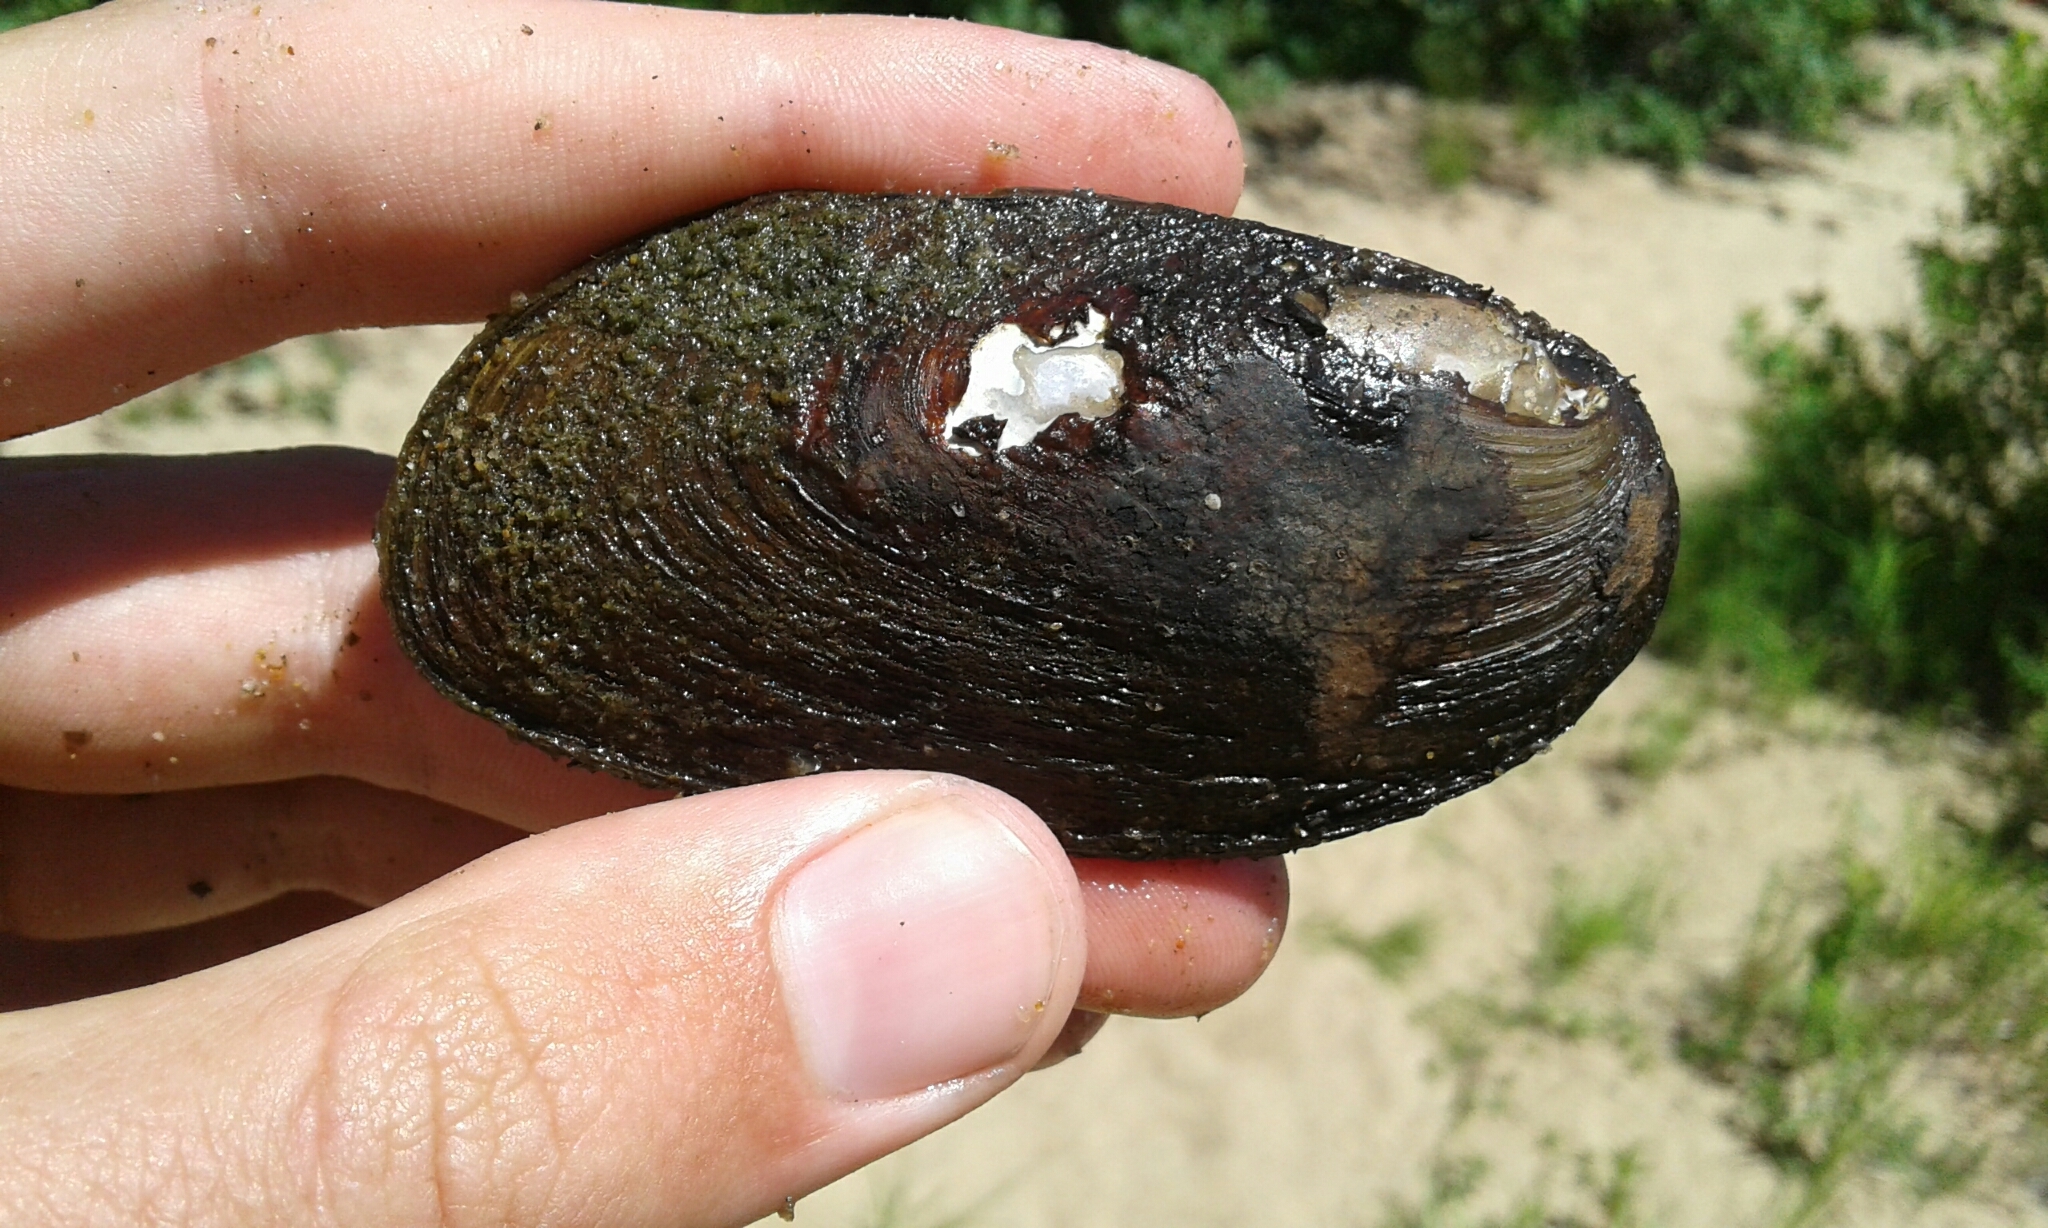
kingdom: Animalia
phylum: Mollusca
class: Bivalvia
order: Unionida
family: Unionidae
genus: Elliptio
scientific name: Elliptio complanata
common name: Eastern elliptio
